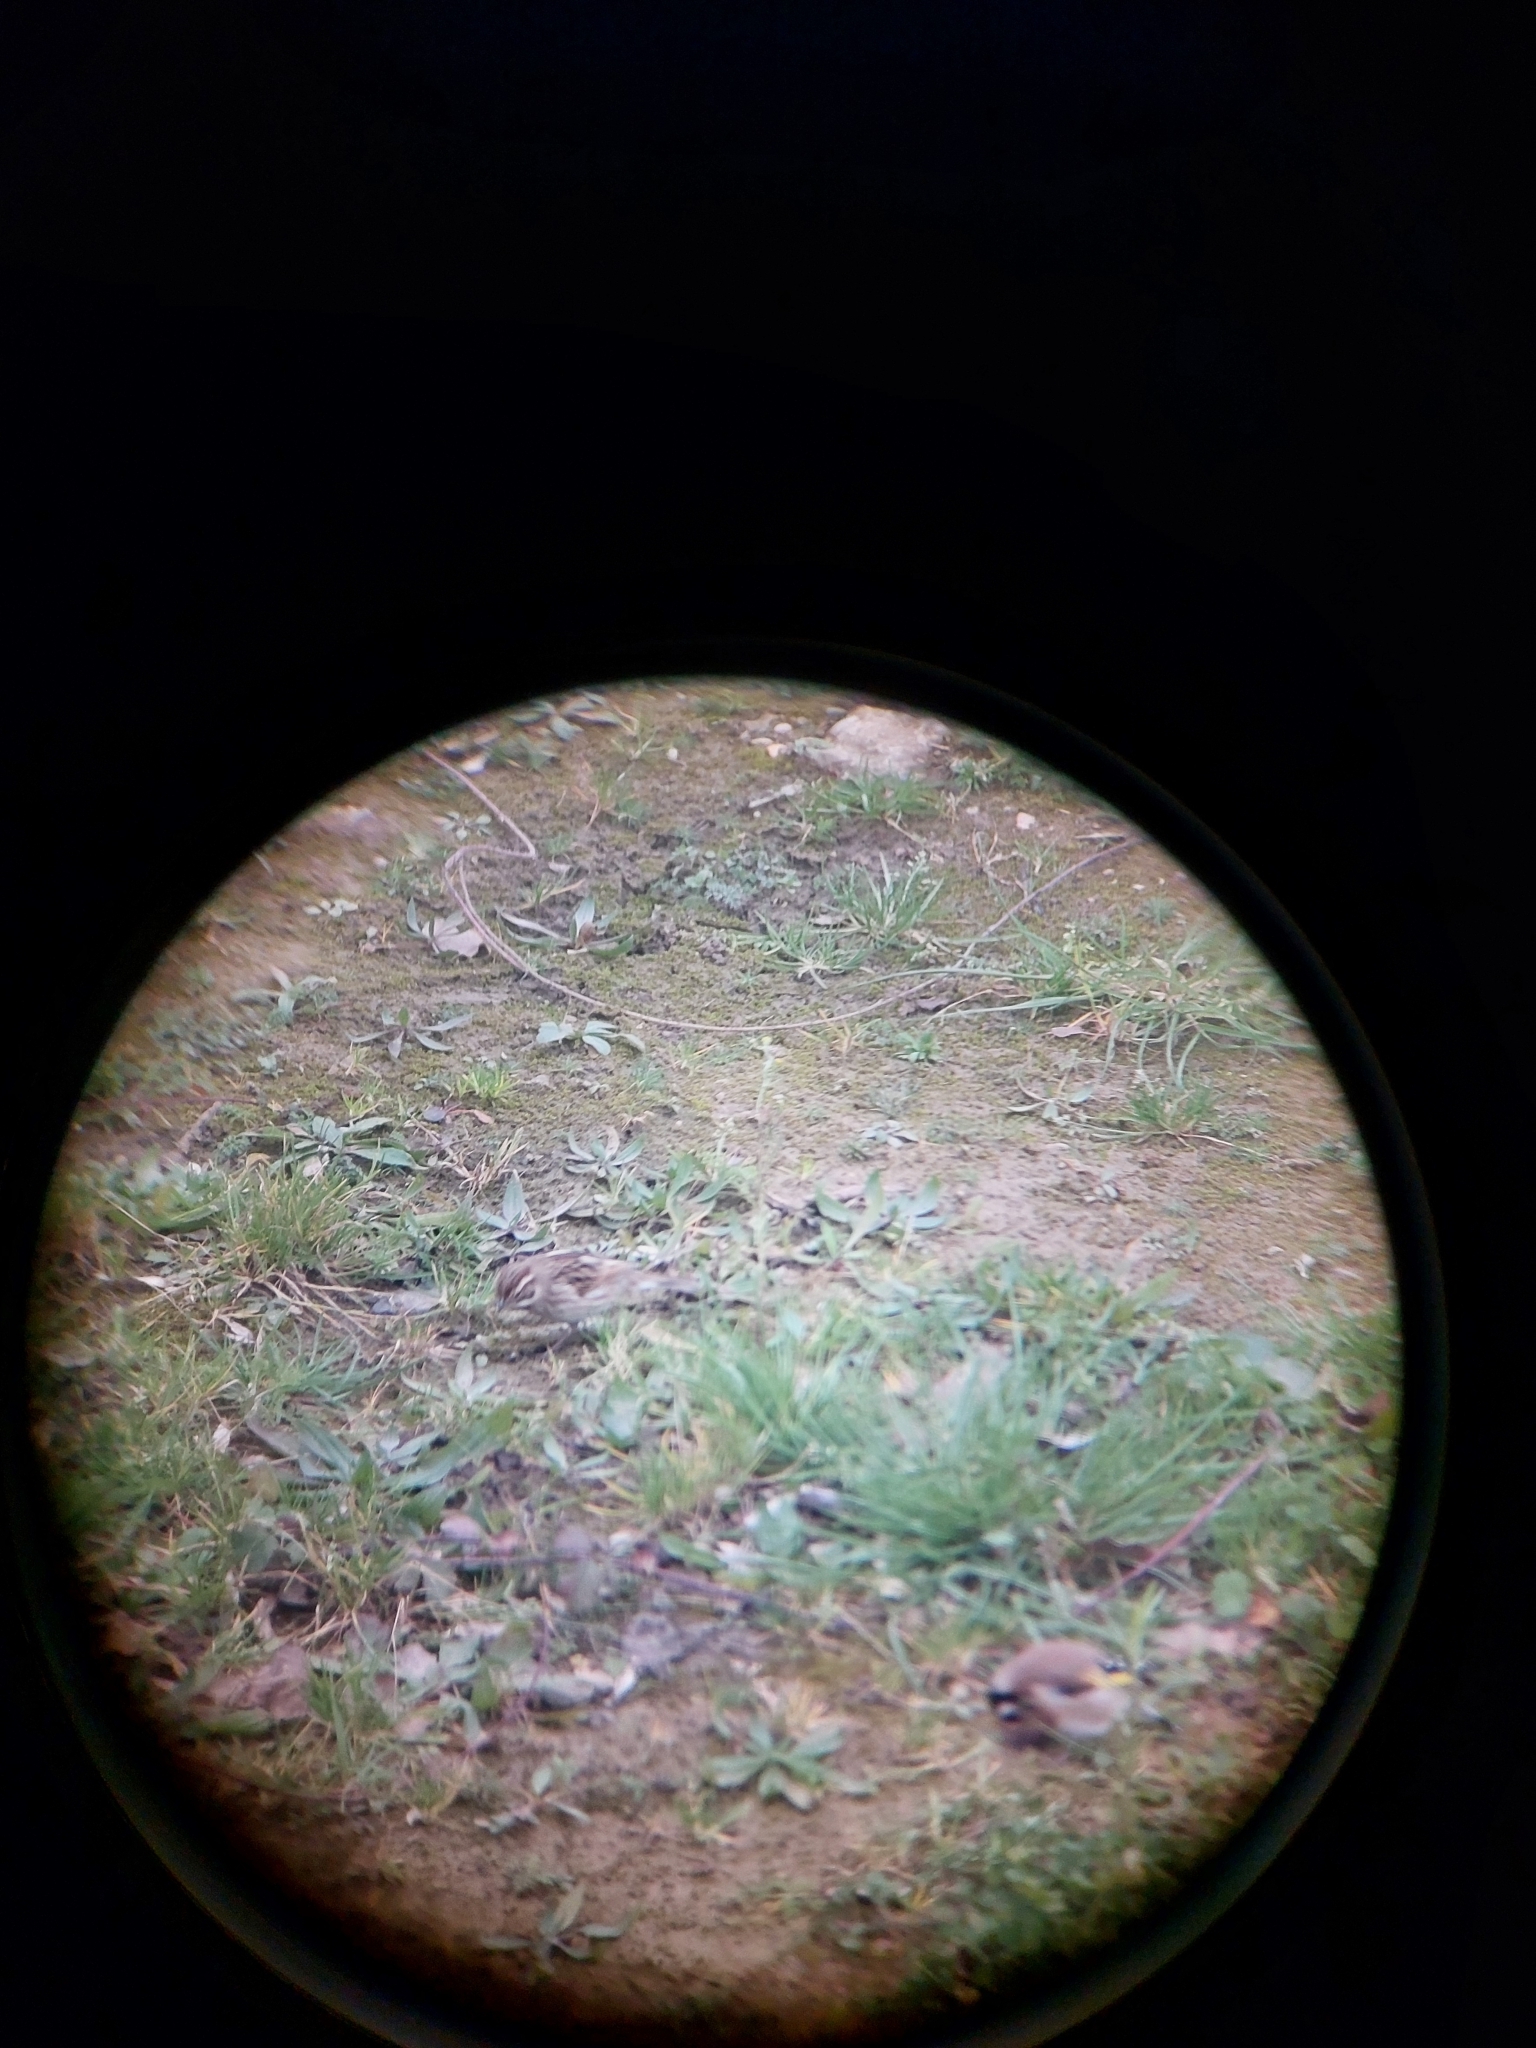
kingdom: Animalia
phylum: Chordata
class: Aves
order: Passeriformes
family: Emberizidae
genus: Emberiza
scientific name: Emberiza schoeniclus
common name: Reed bunting
